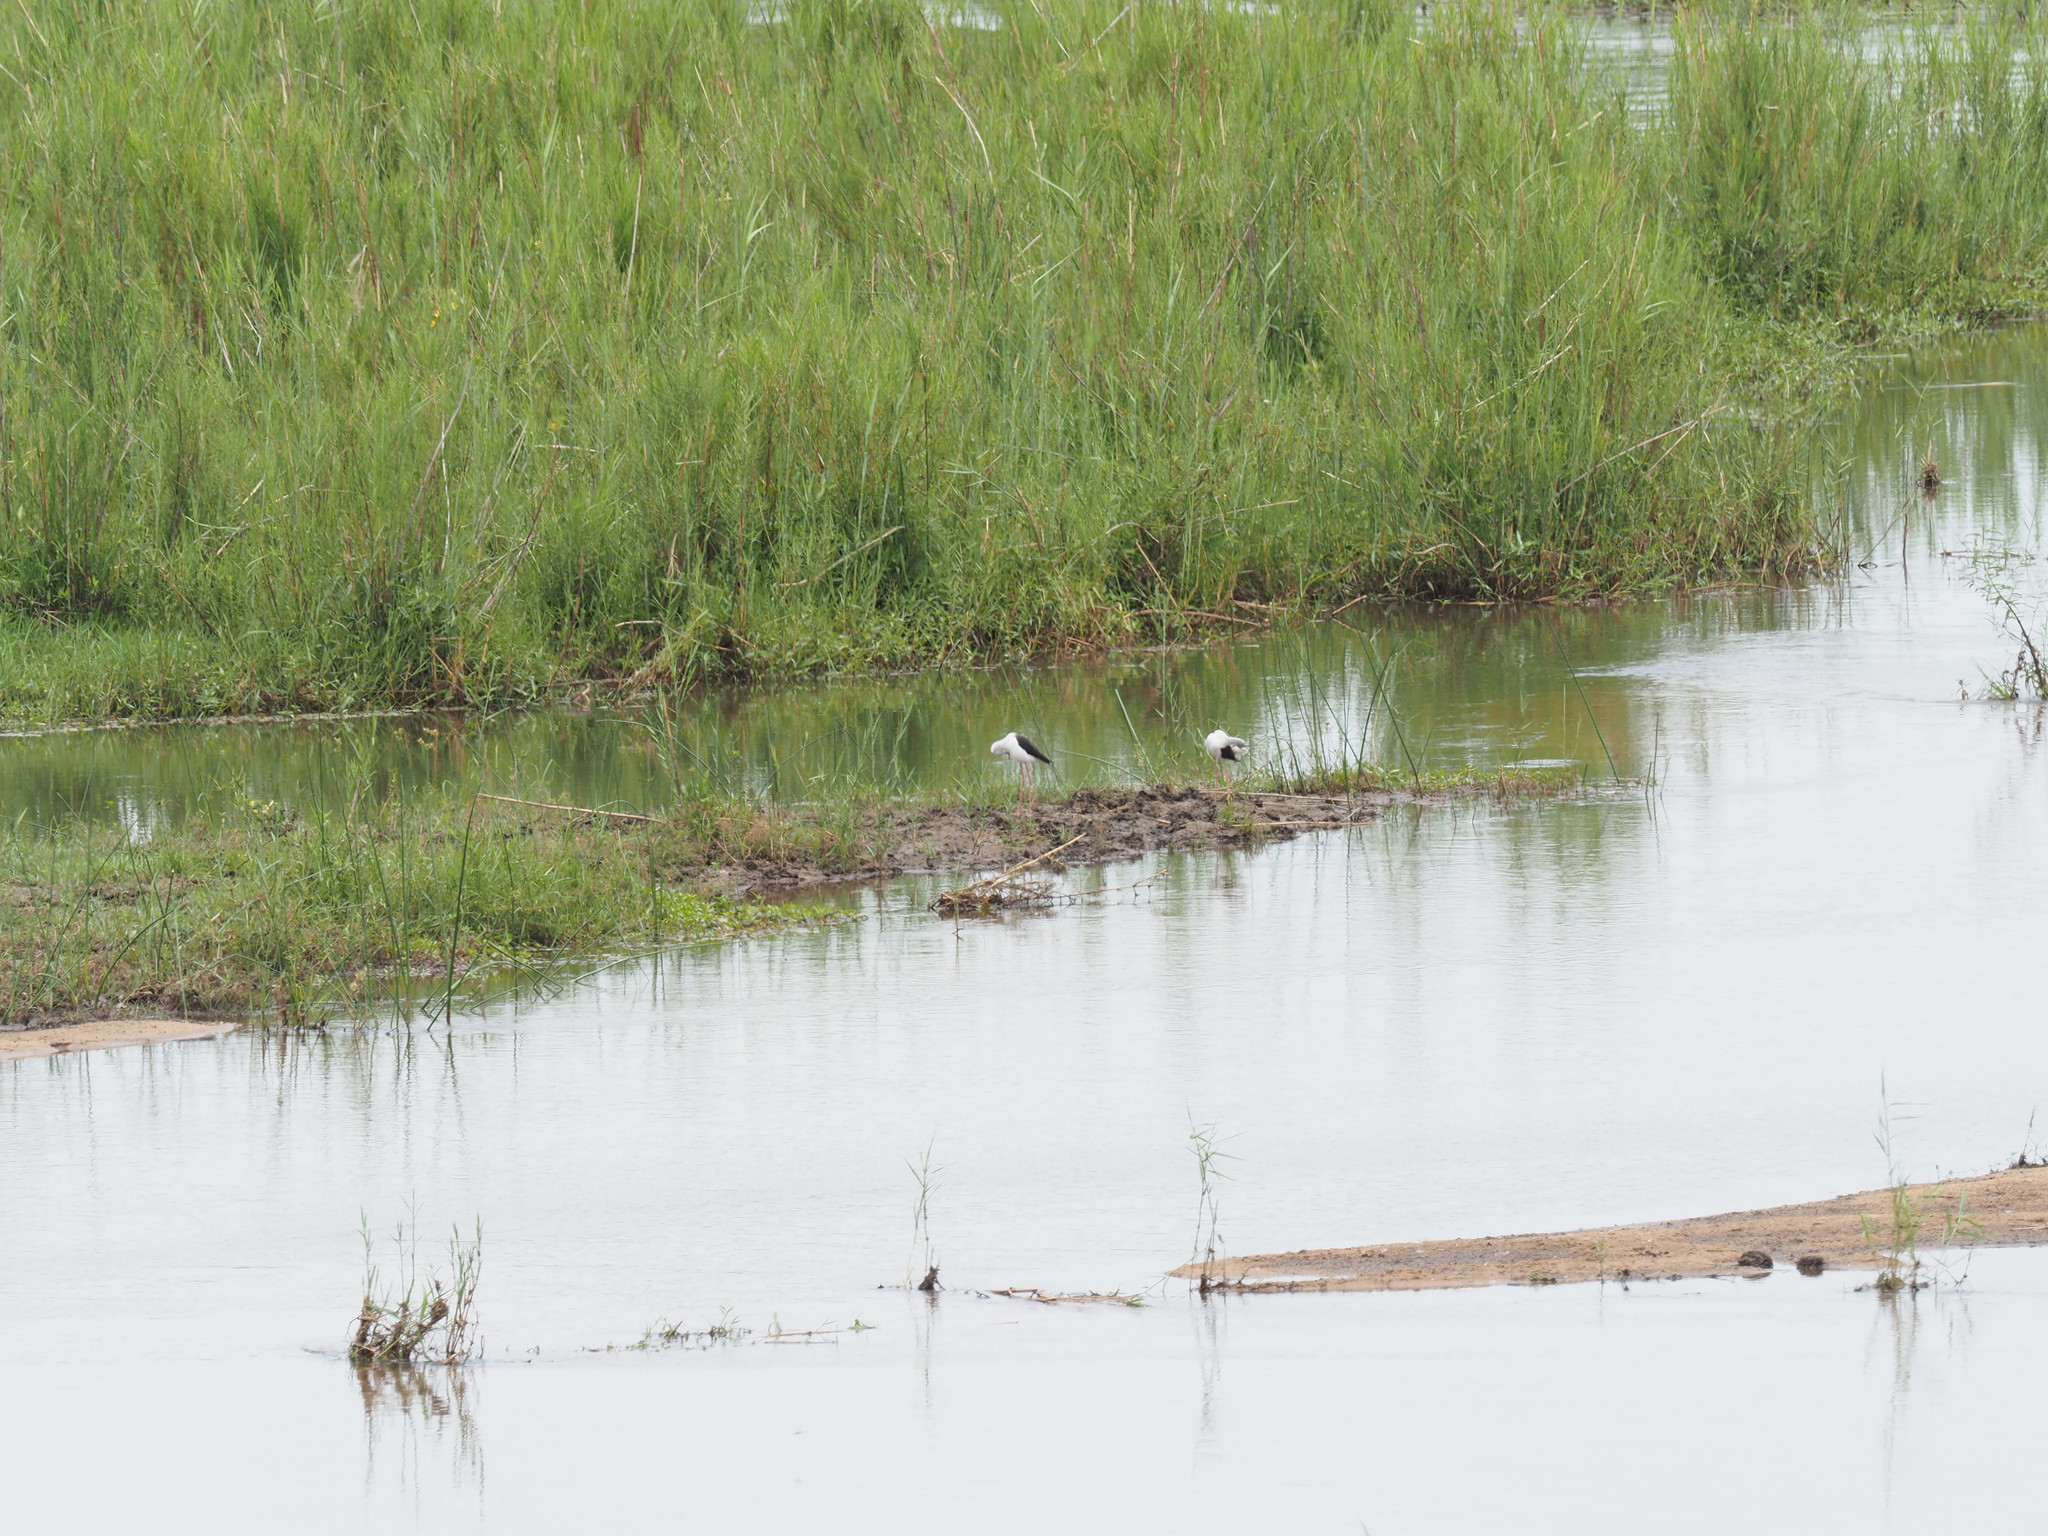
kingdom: Animalia
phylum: Chordata
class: Aves
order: Charadriiformes
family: Recurvirostridae
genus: Himantopus
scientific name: Himantopus himantopus
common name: Black-winged stilt
